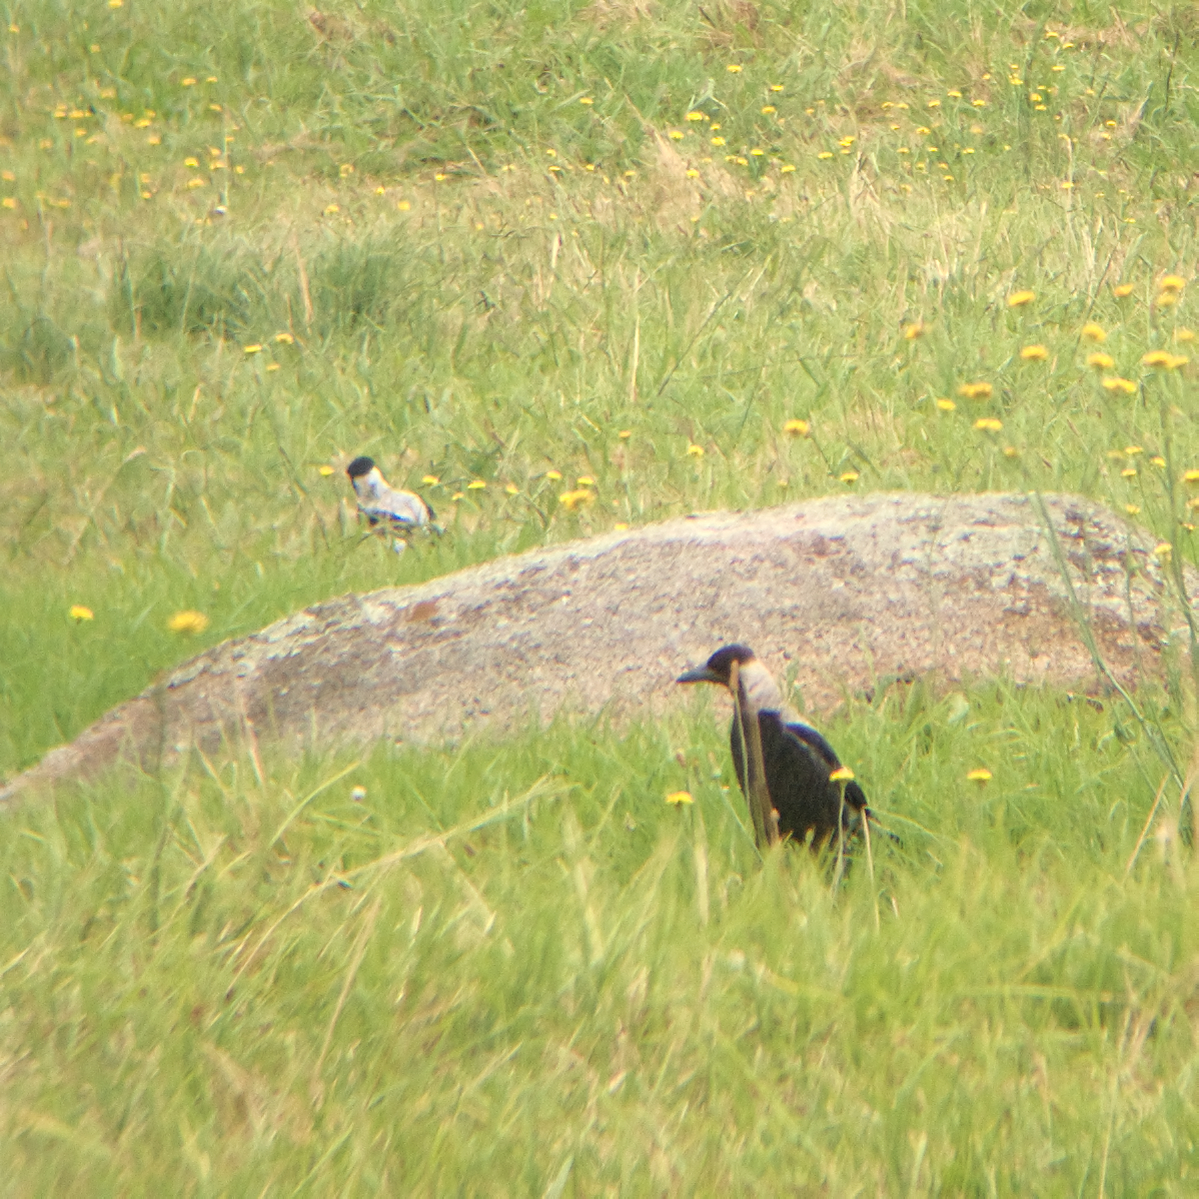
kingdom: Animalia
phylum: Chordata
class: Aves
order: Passeriformes
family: Cracticidae
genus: Gymnorhina
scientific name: Gymnorhina tibicen
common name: Australian magpie
